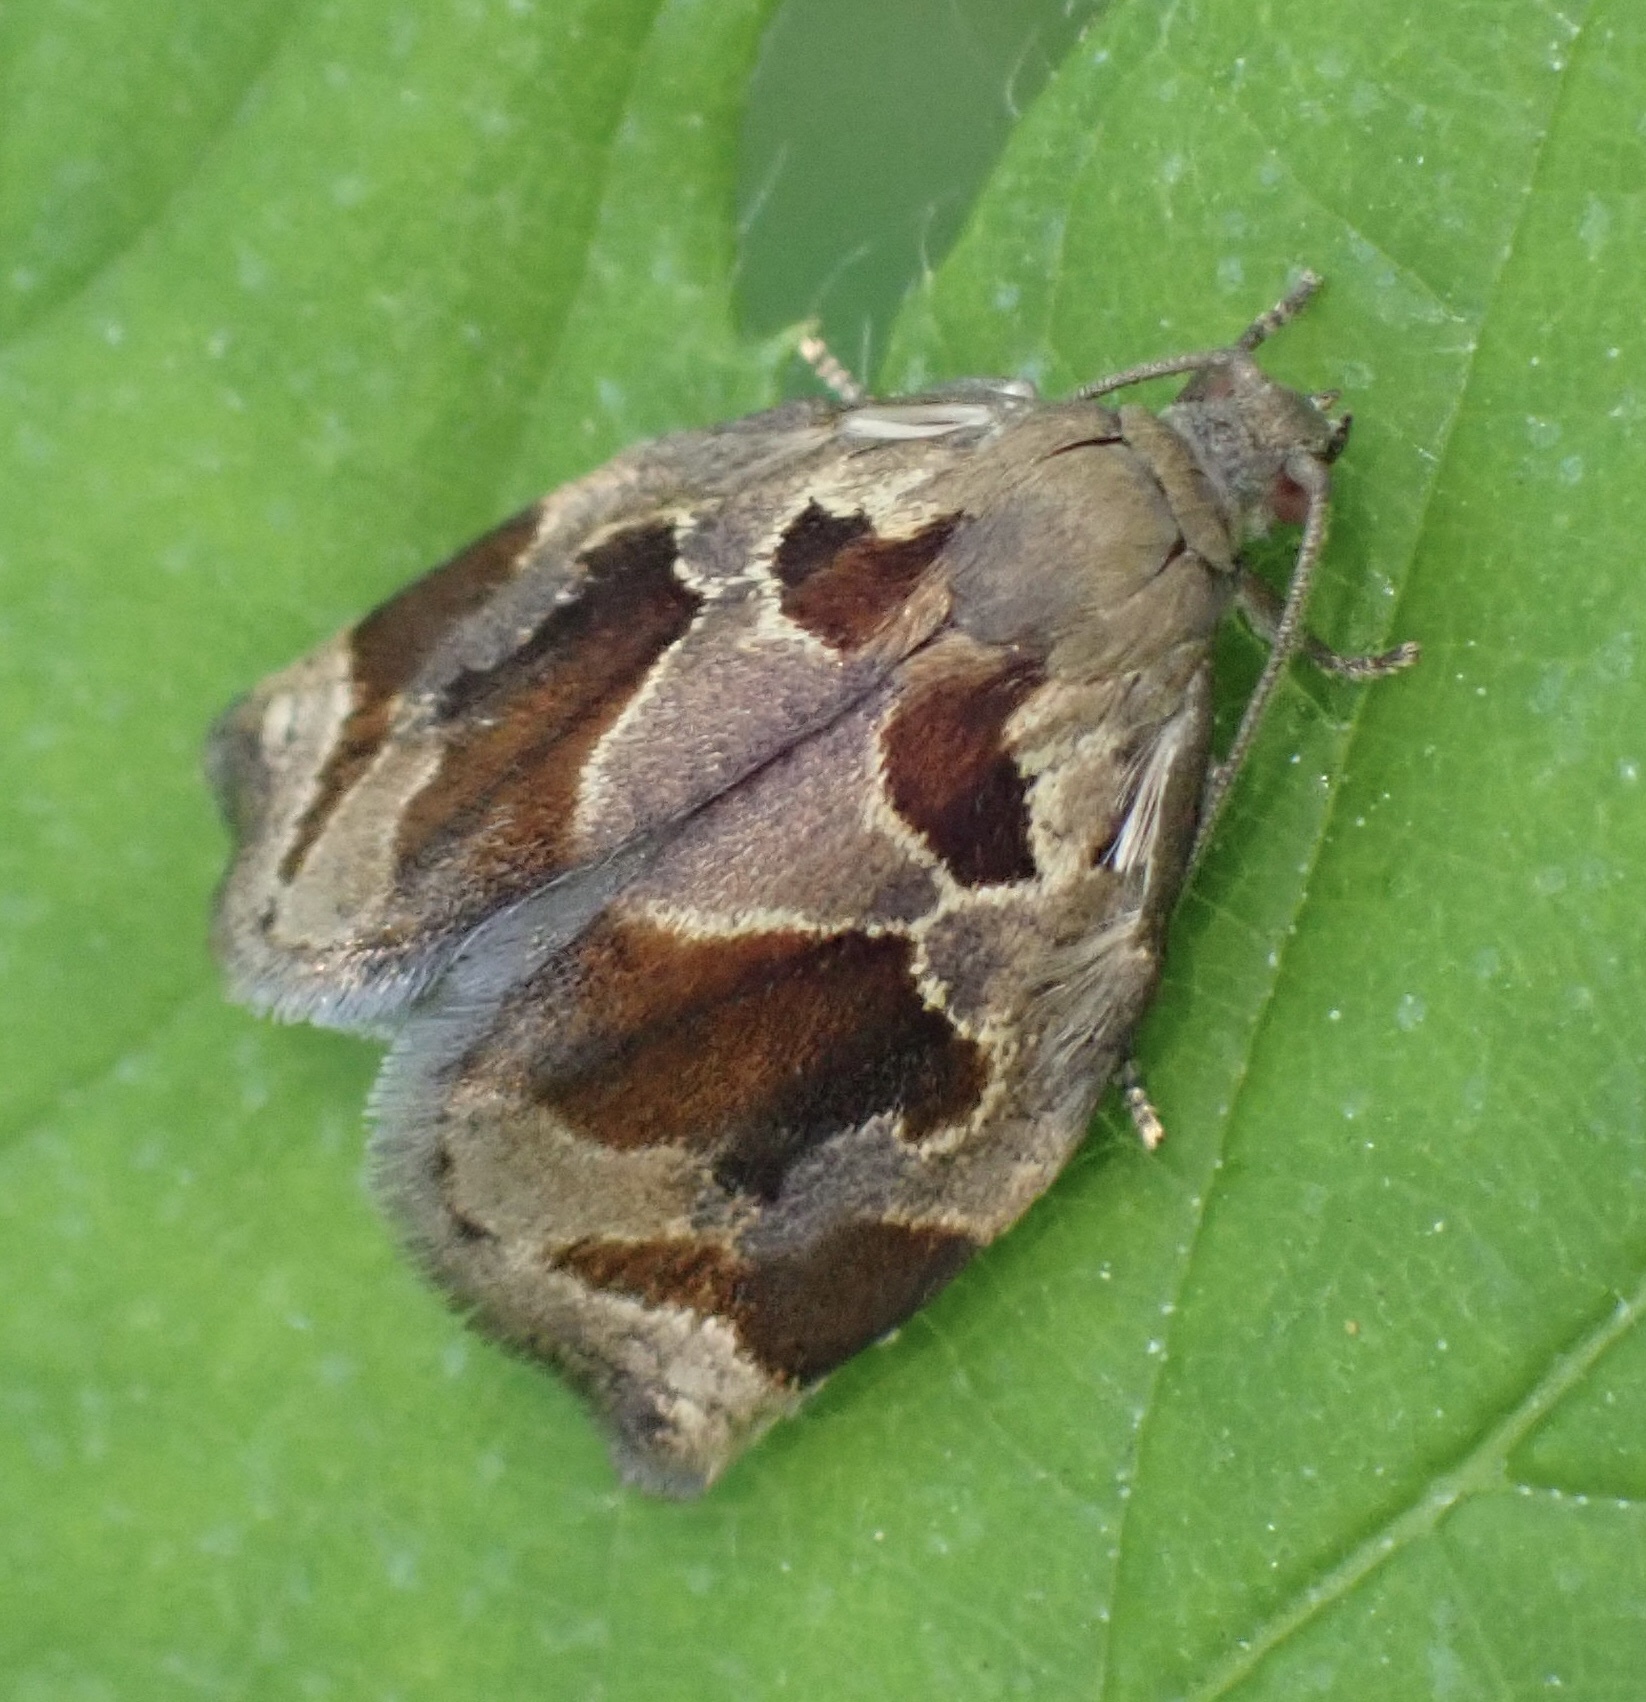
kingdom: Animalia
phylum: Arthropoda
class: Insecta
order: Lepidoptera
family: Tortricidae
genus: Archips
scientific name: Archips crataegana
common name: Brown oak tortrix
